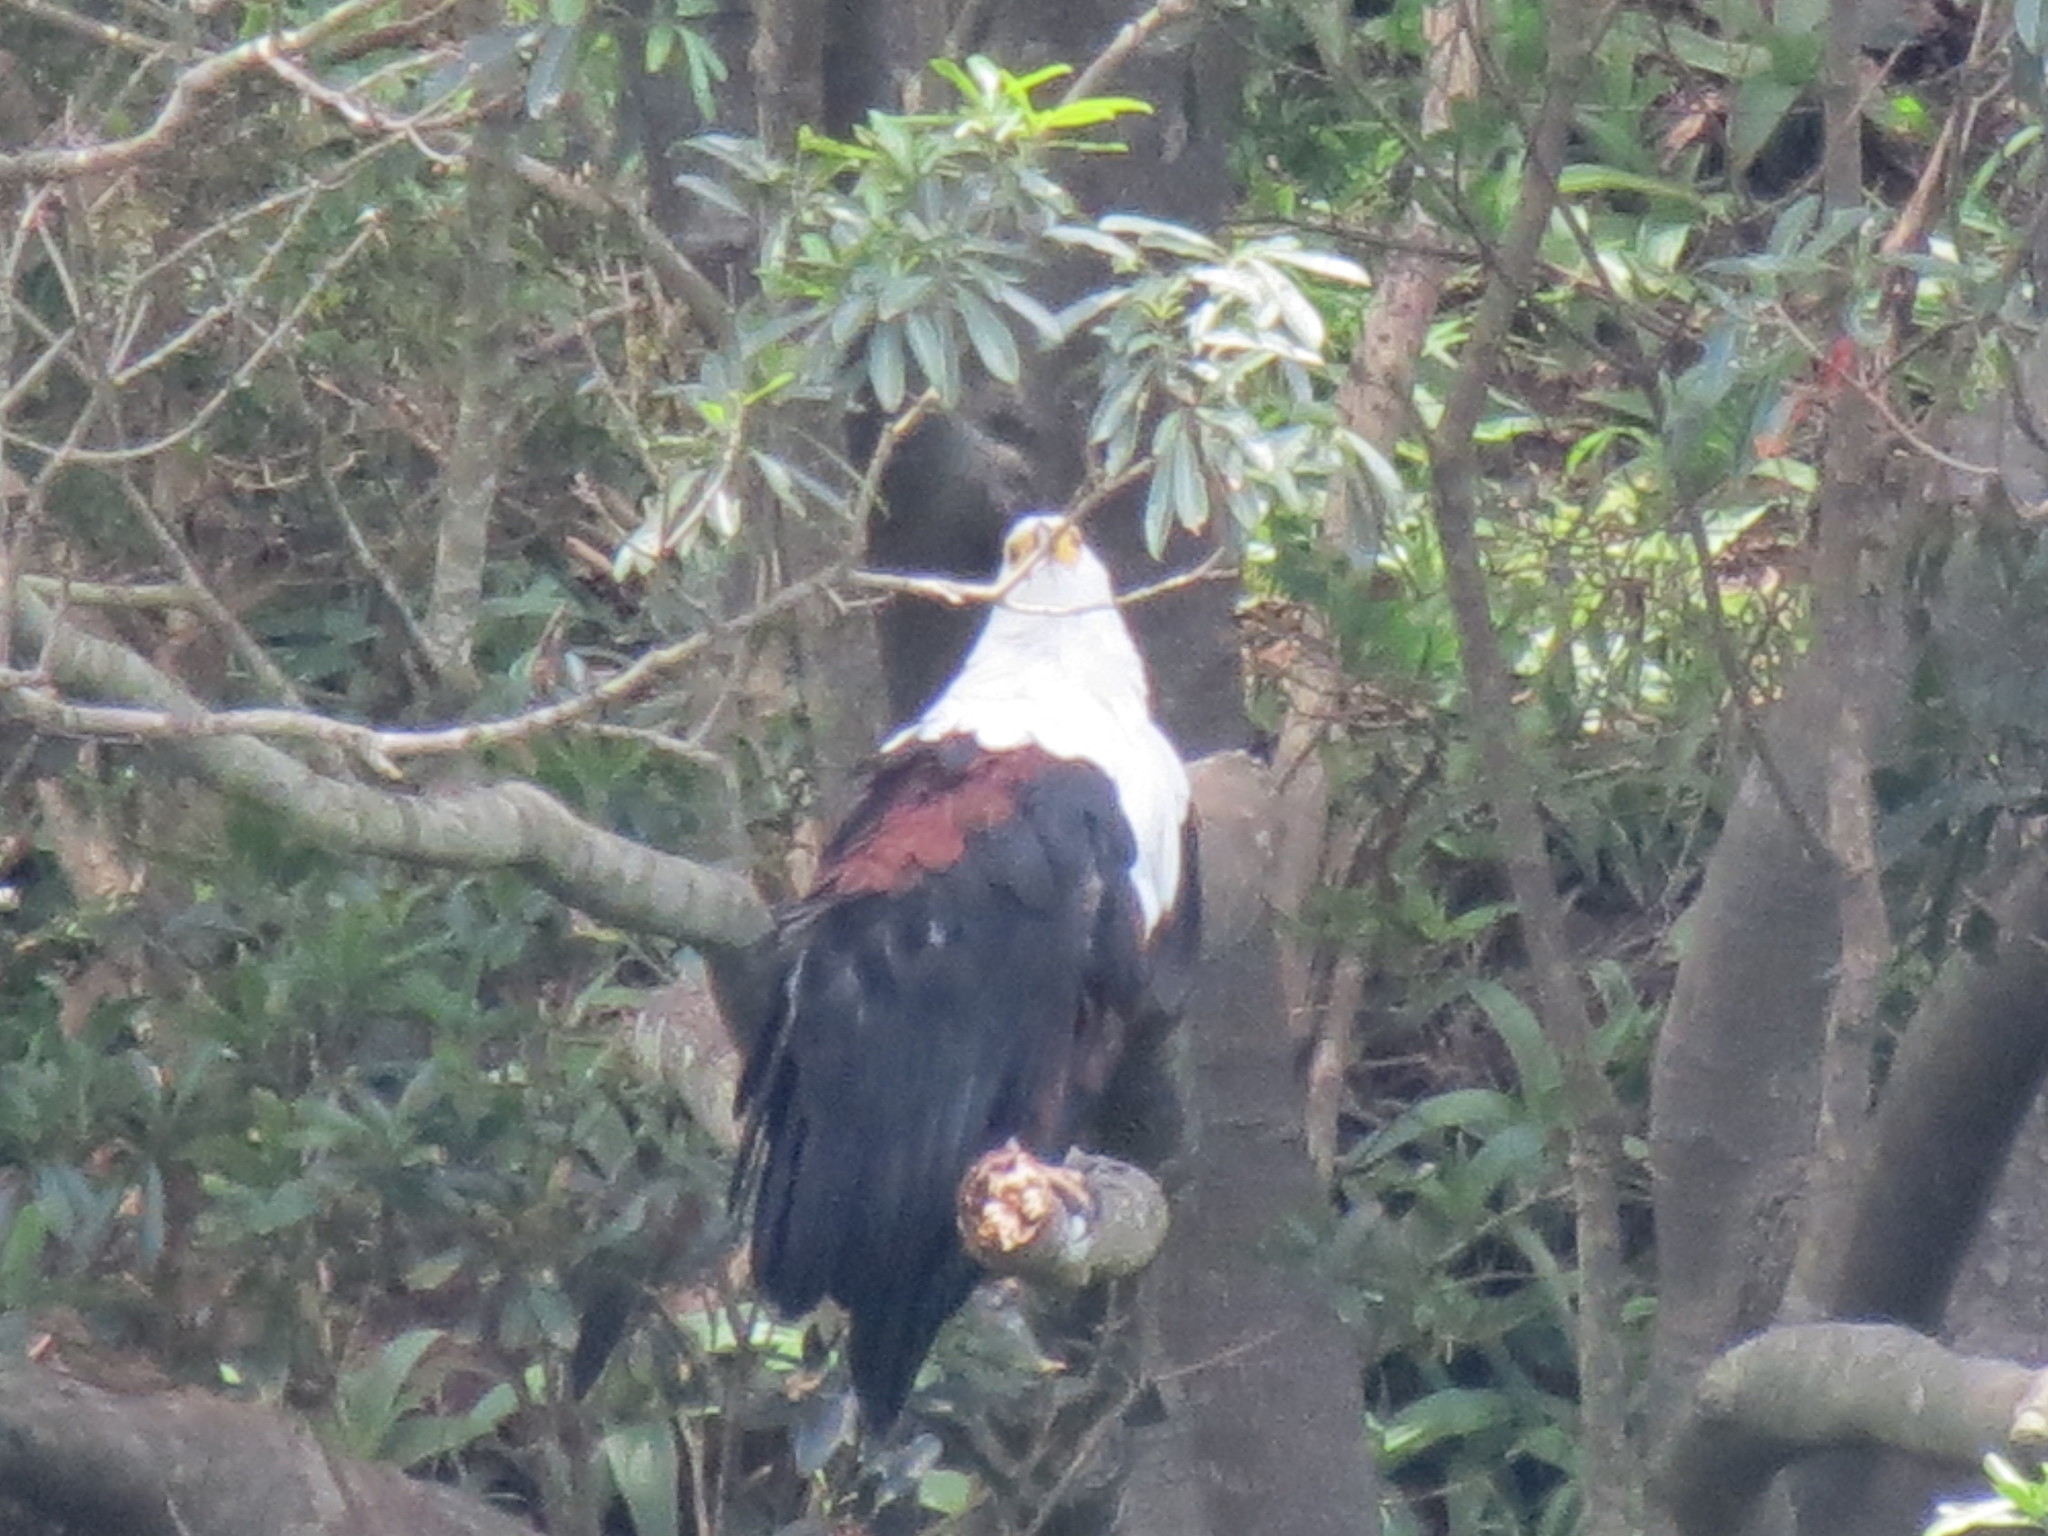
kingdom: Animalia
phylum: Chordata
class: Aves
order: Accipitriformes
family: Accipitridae
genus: Haliaeetus
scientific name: Haliaeetus vocifer
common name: African fish eagle
